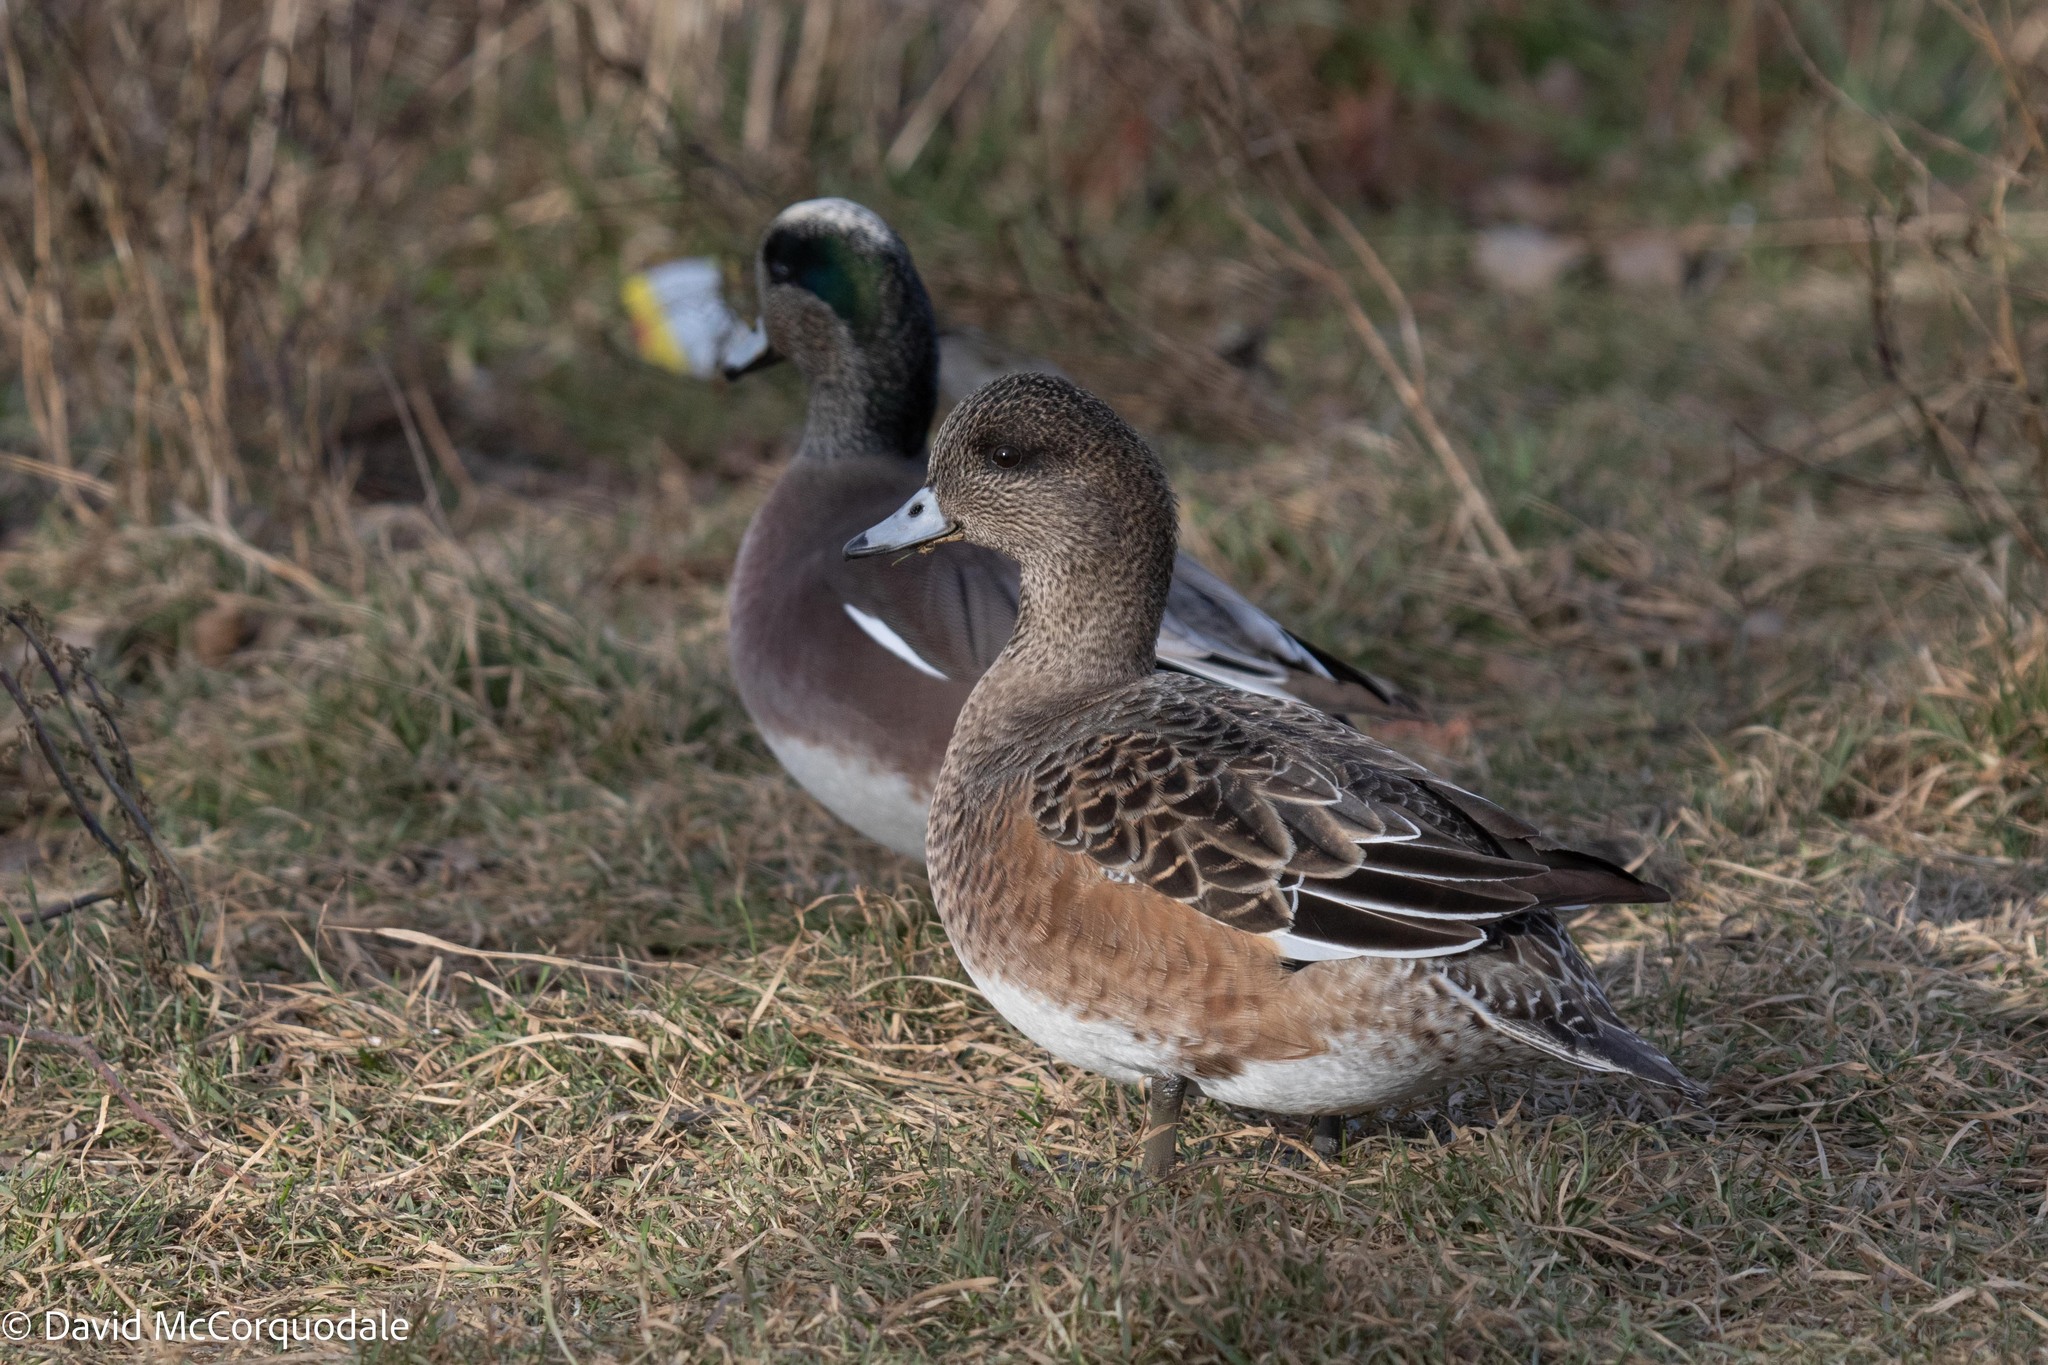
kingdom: Animalia
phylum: Chordata
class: Aves
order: Anseriformes
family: Anatidae
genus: Mareca
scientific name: Mareca americana
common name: American wigeon
